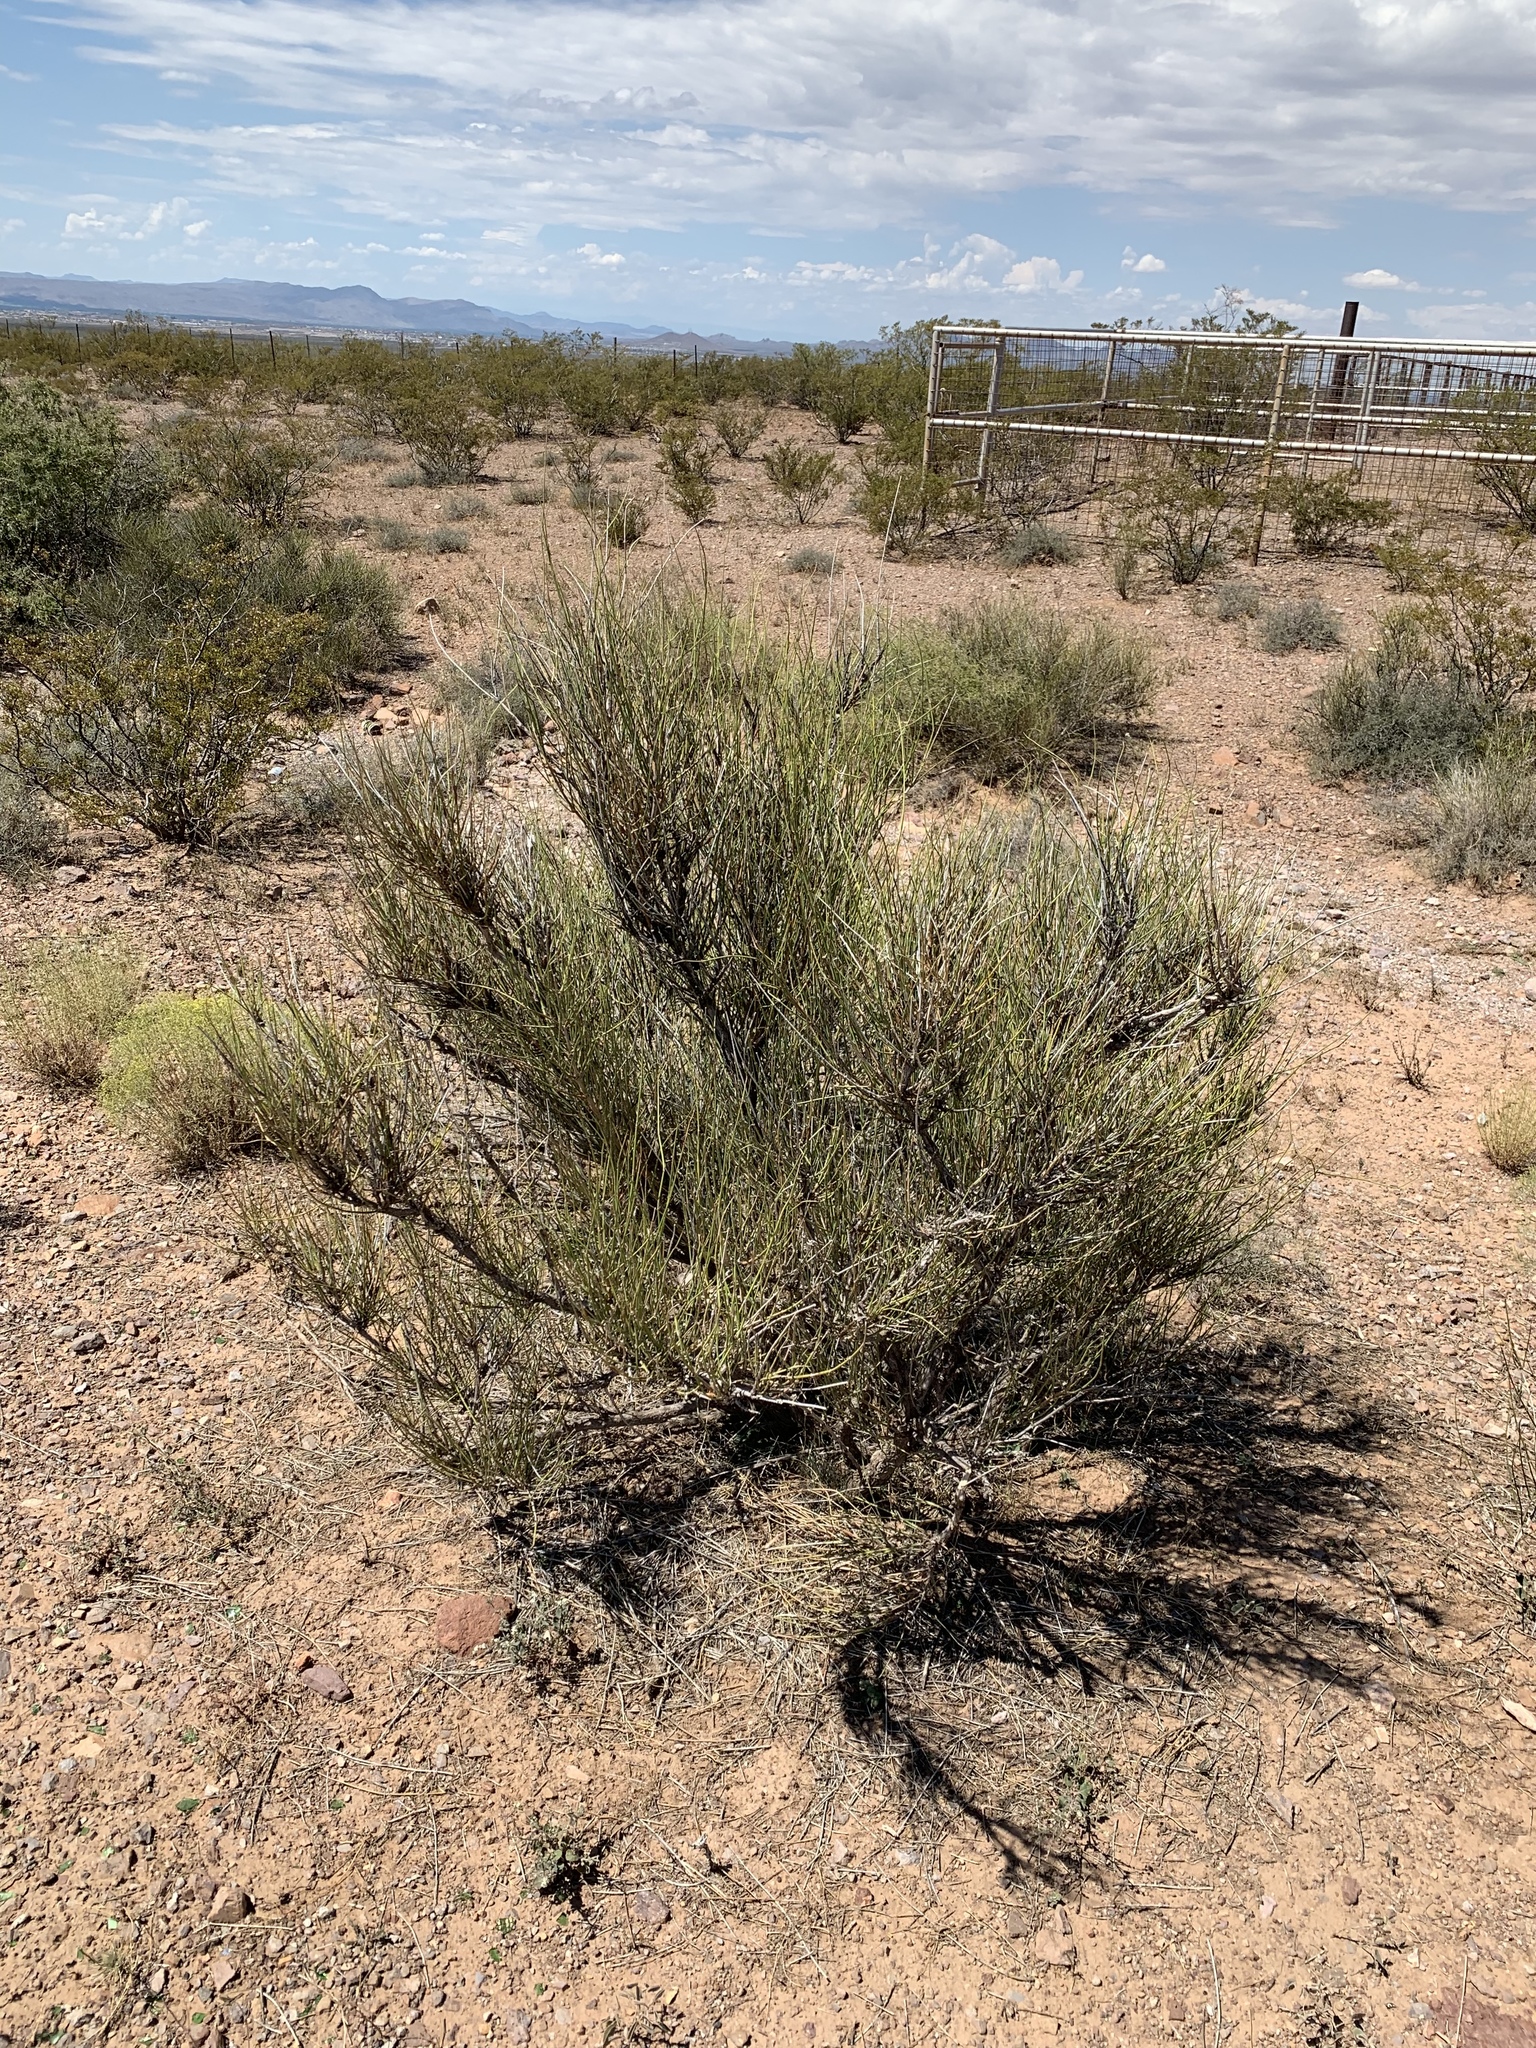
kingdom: Plantae
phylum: Tracheophyta
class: Gnetopsida
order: Ephedrales
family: Ephedraceae
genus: Ephedra
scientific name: Ephedra trifurca
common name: Mexican-tea
